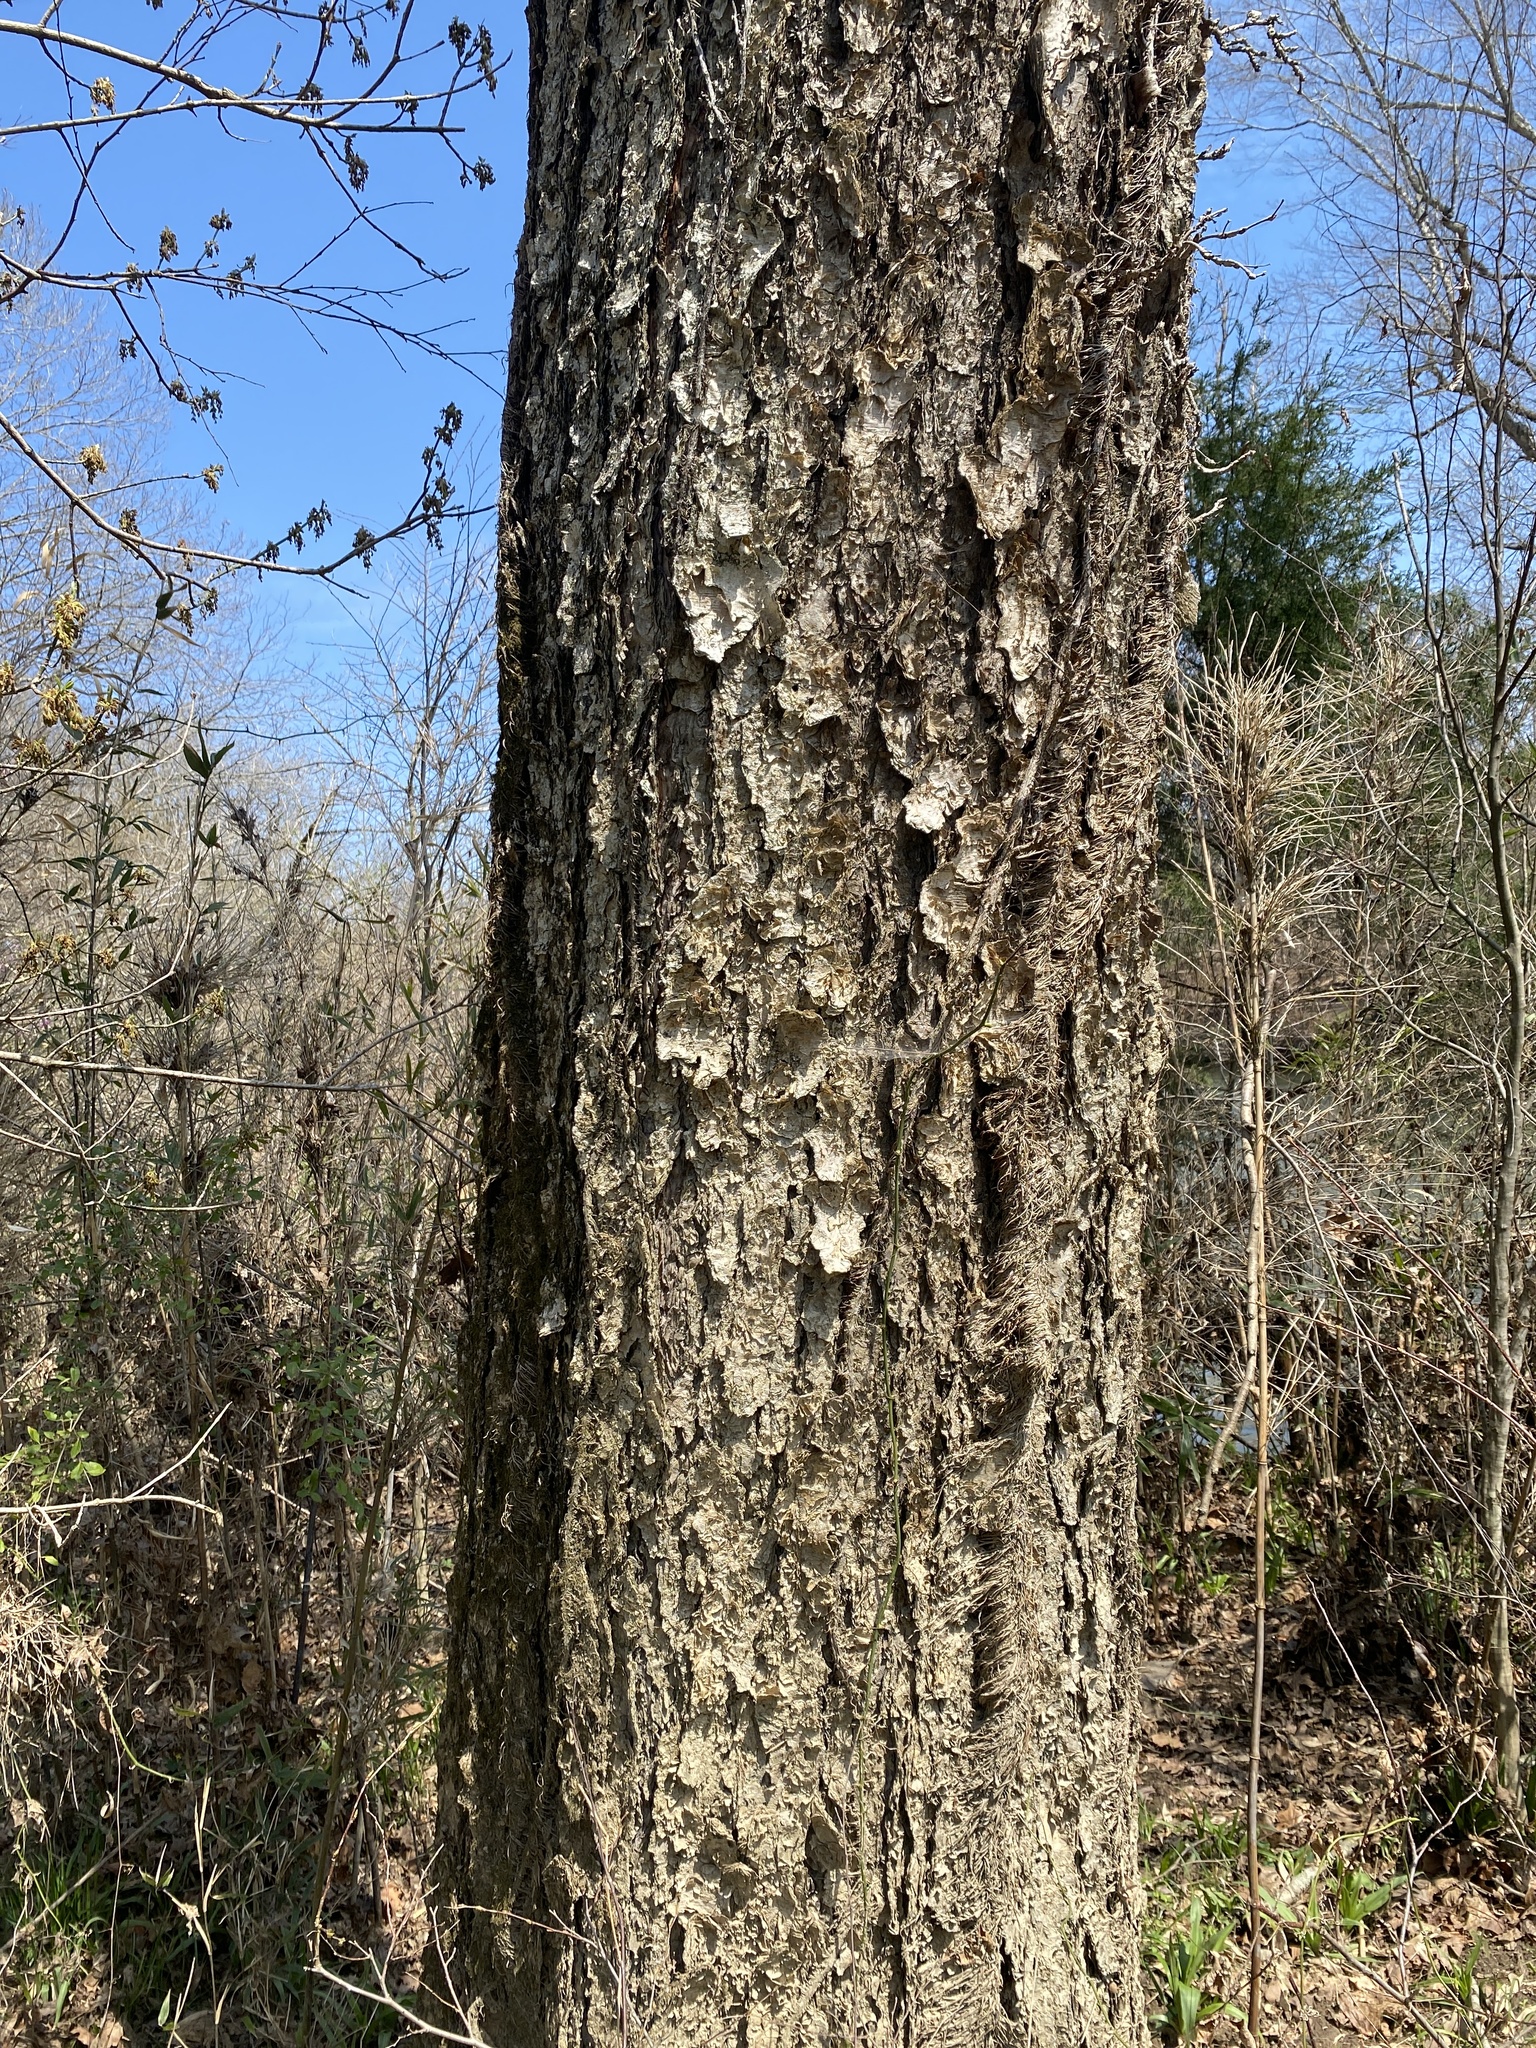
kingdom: Plantae
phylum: Tracheophyta
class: Magnoliopsida
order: Fagales
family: Betulaceae
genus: Betula
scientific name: Betula nigra
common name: Black birch
